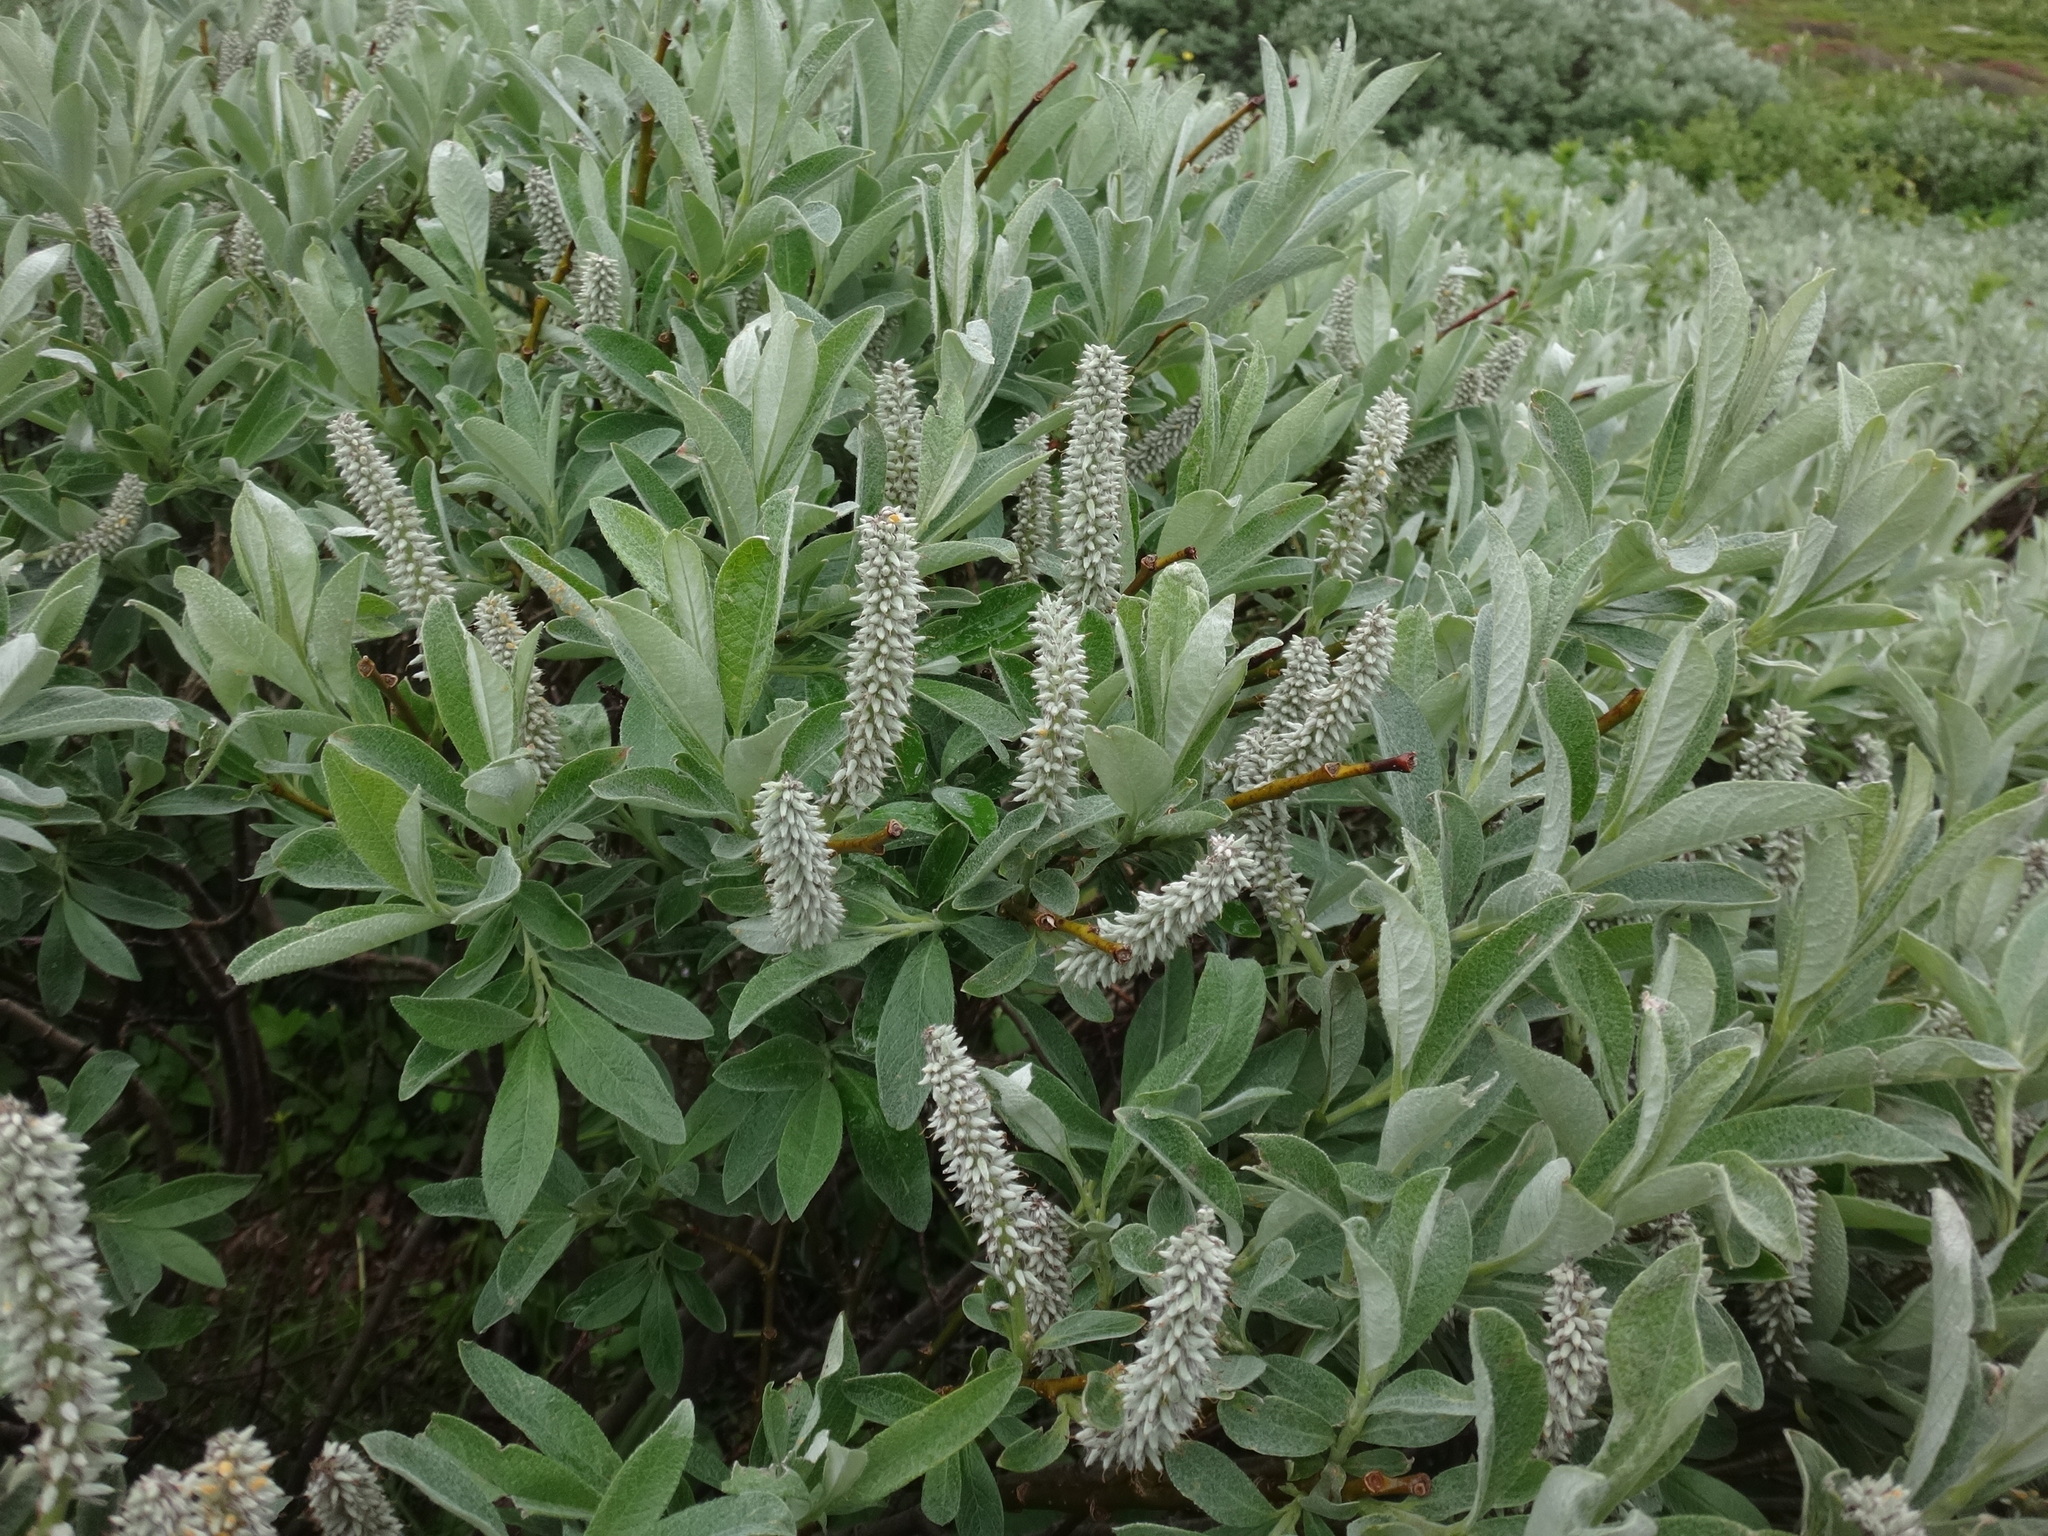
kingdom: Plantae
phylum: Tracheophyta
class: Magnoliopsida
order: Malpighiales
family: Salicaceae
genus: Salix
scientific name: Salix helvetica
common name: Swiss willow
